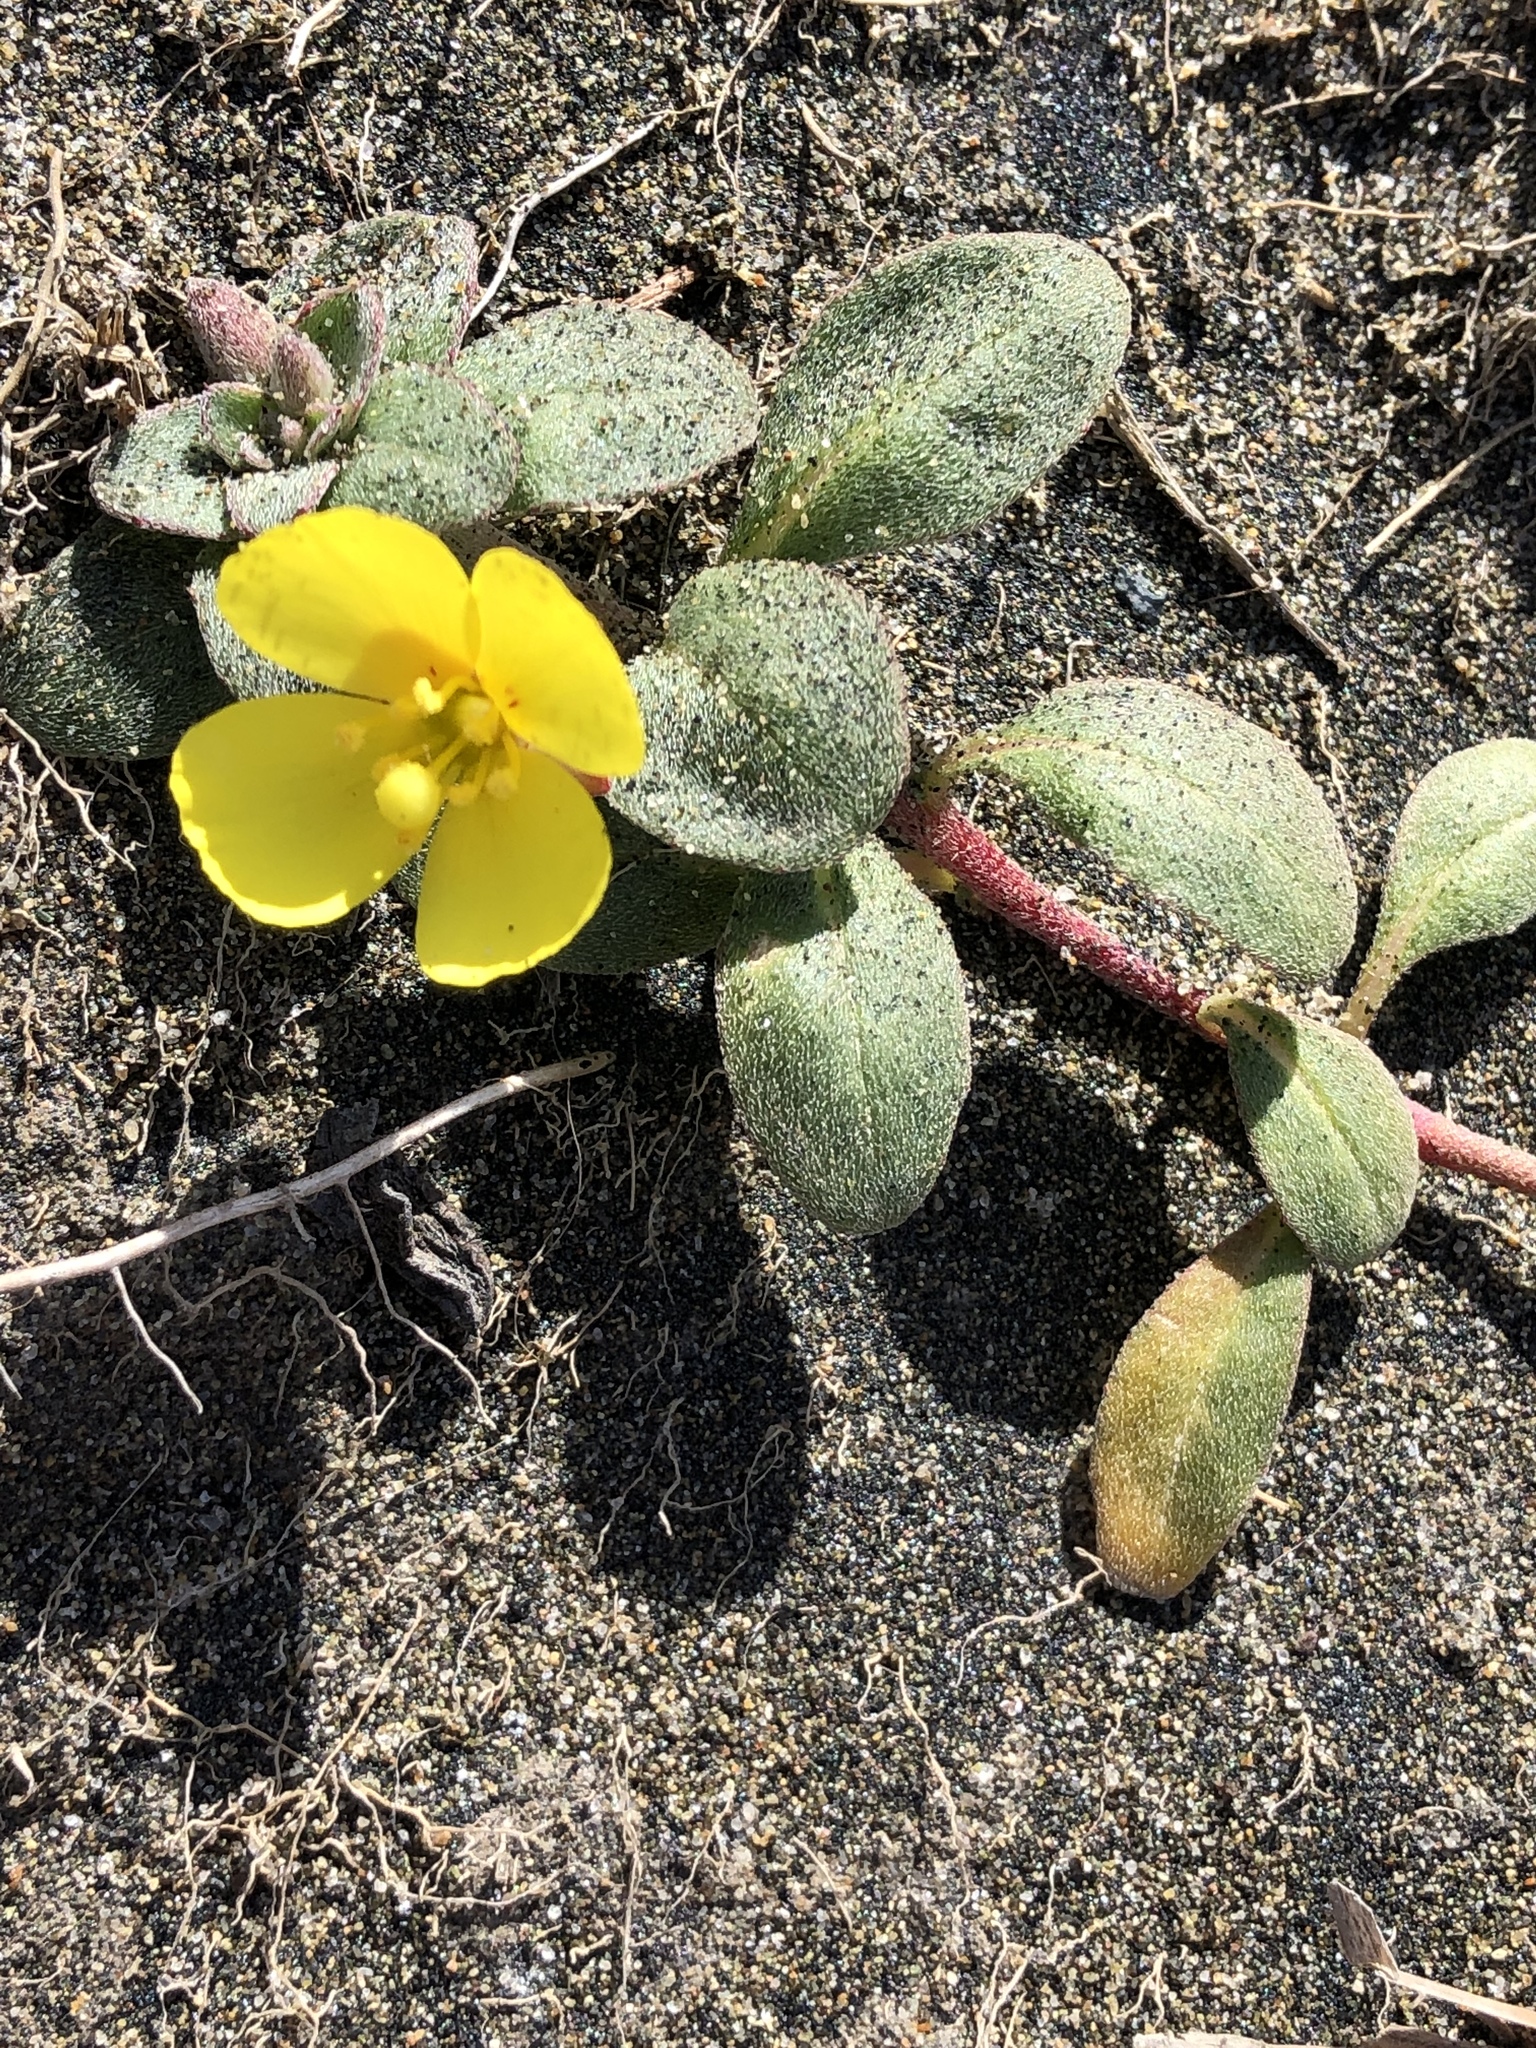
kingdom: Plantae
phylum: Tracheophyta
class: Magnoliopsida
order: Myrtales
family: Onagraceae
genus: Camissoniopsis
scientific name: Camissoniopsis cheiranthifolia
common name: Beach suncup
